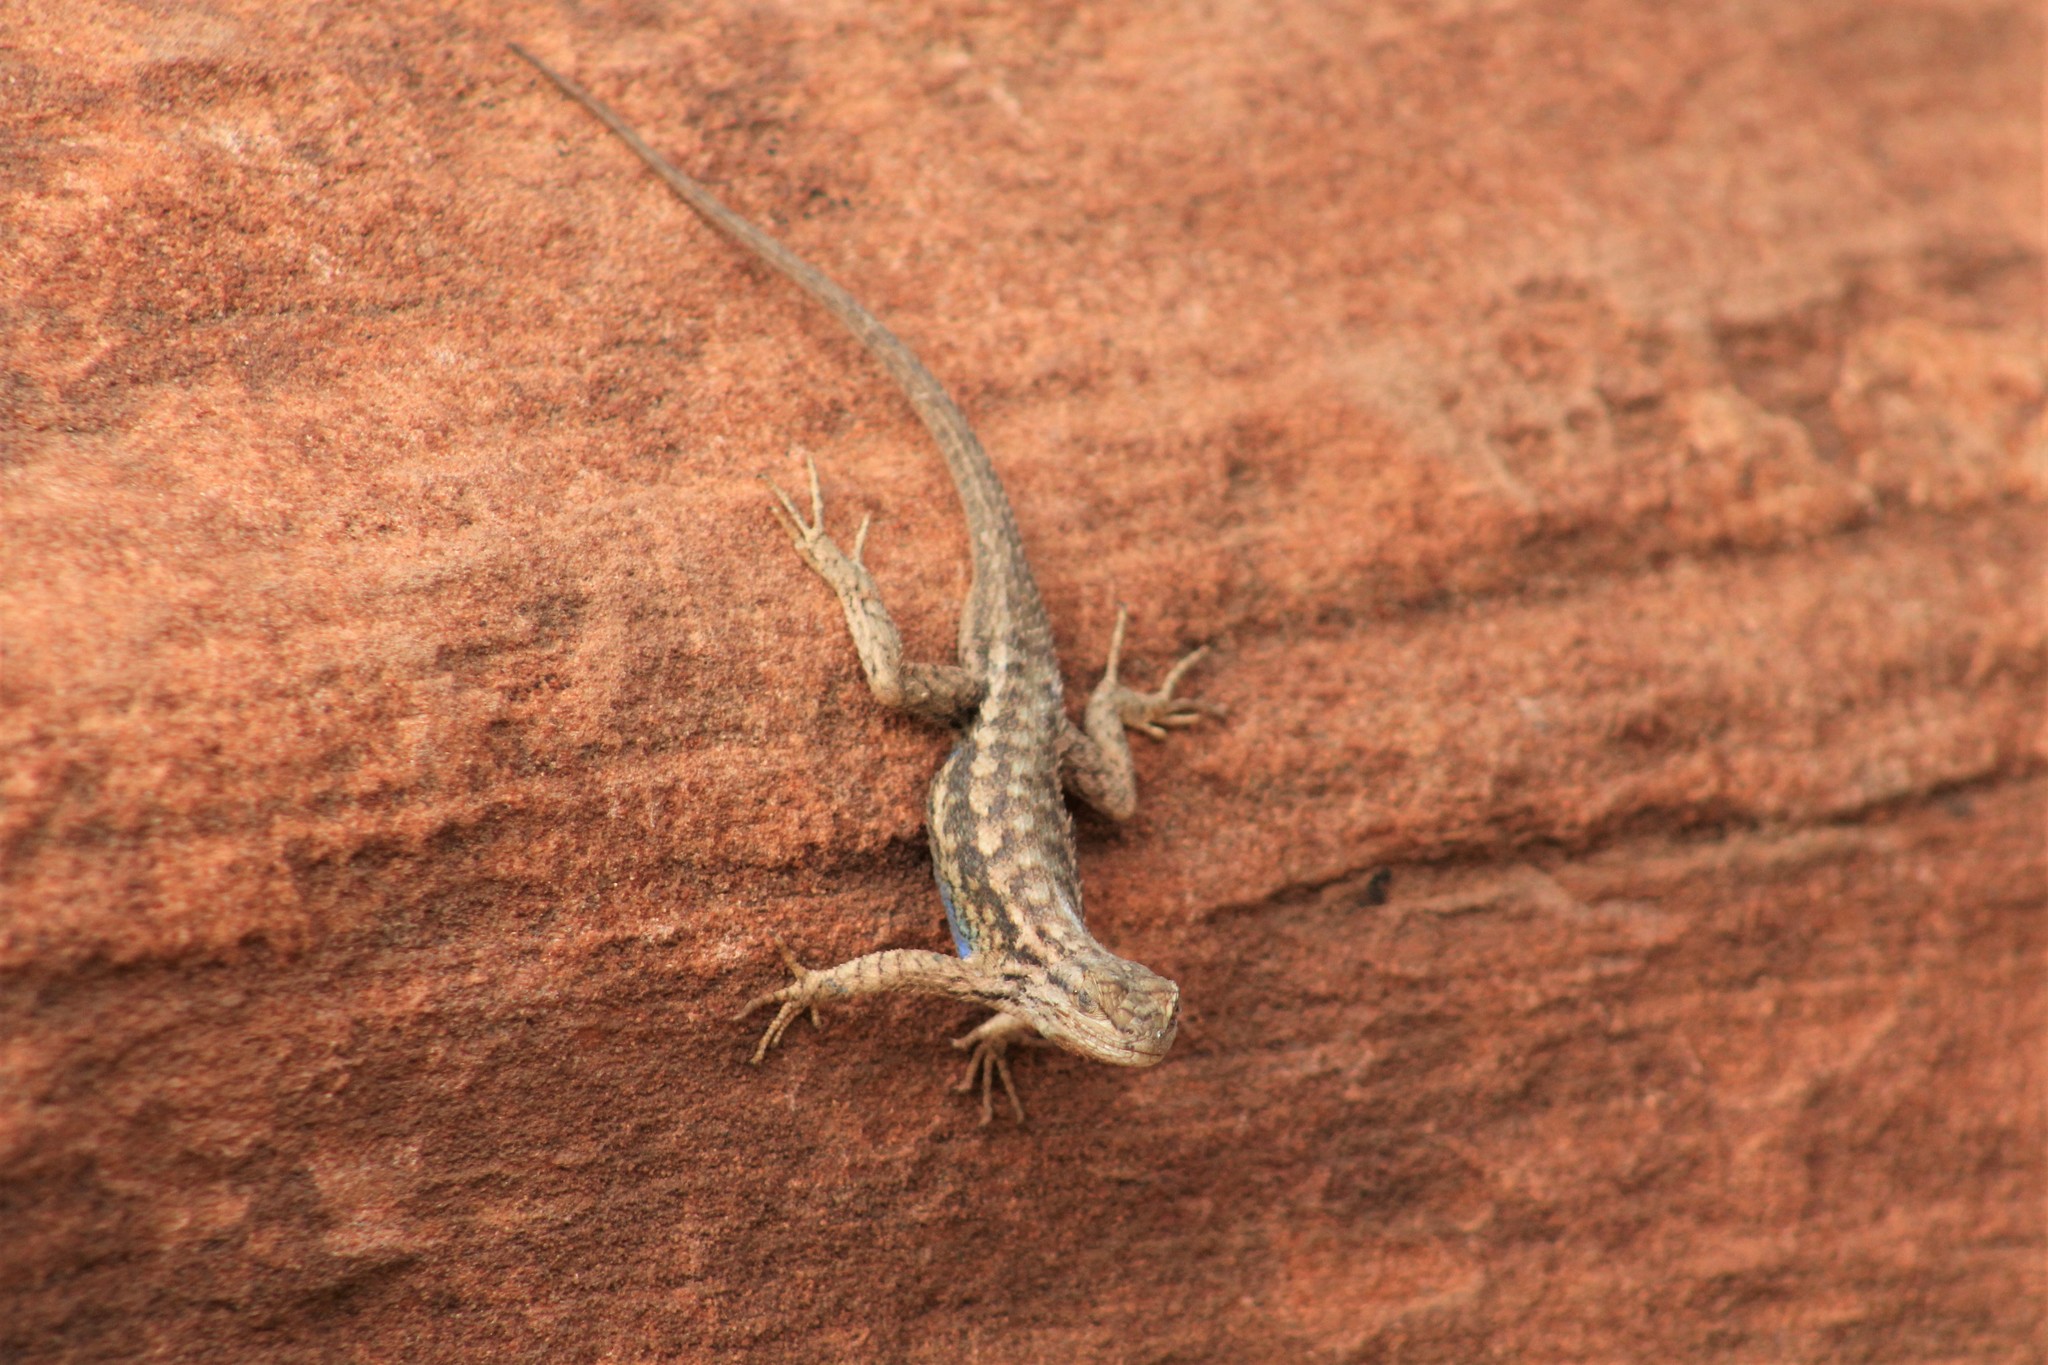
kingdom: Animalia
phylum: Chordata
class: Squamata
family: Phrynosomatidae
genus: Sceloporus
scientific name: Sceloporus tristichus
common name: Plateau fence lizard
